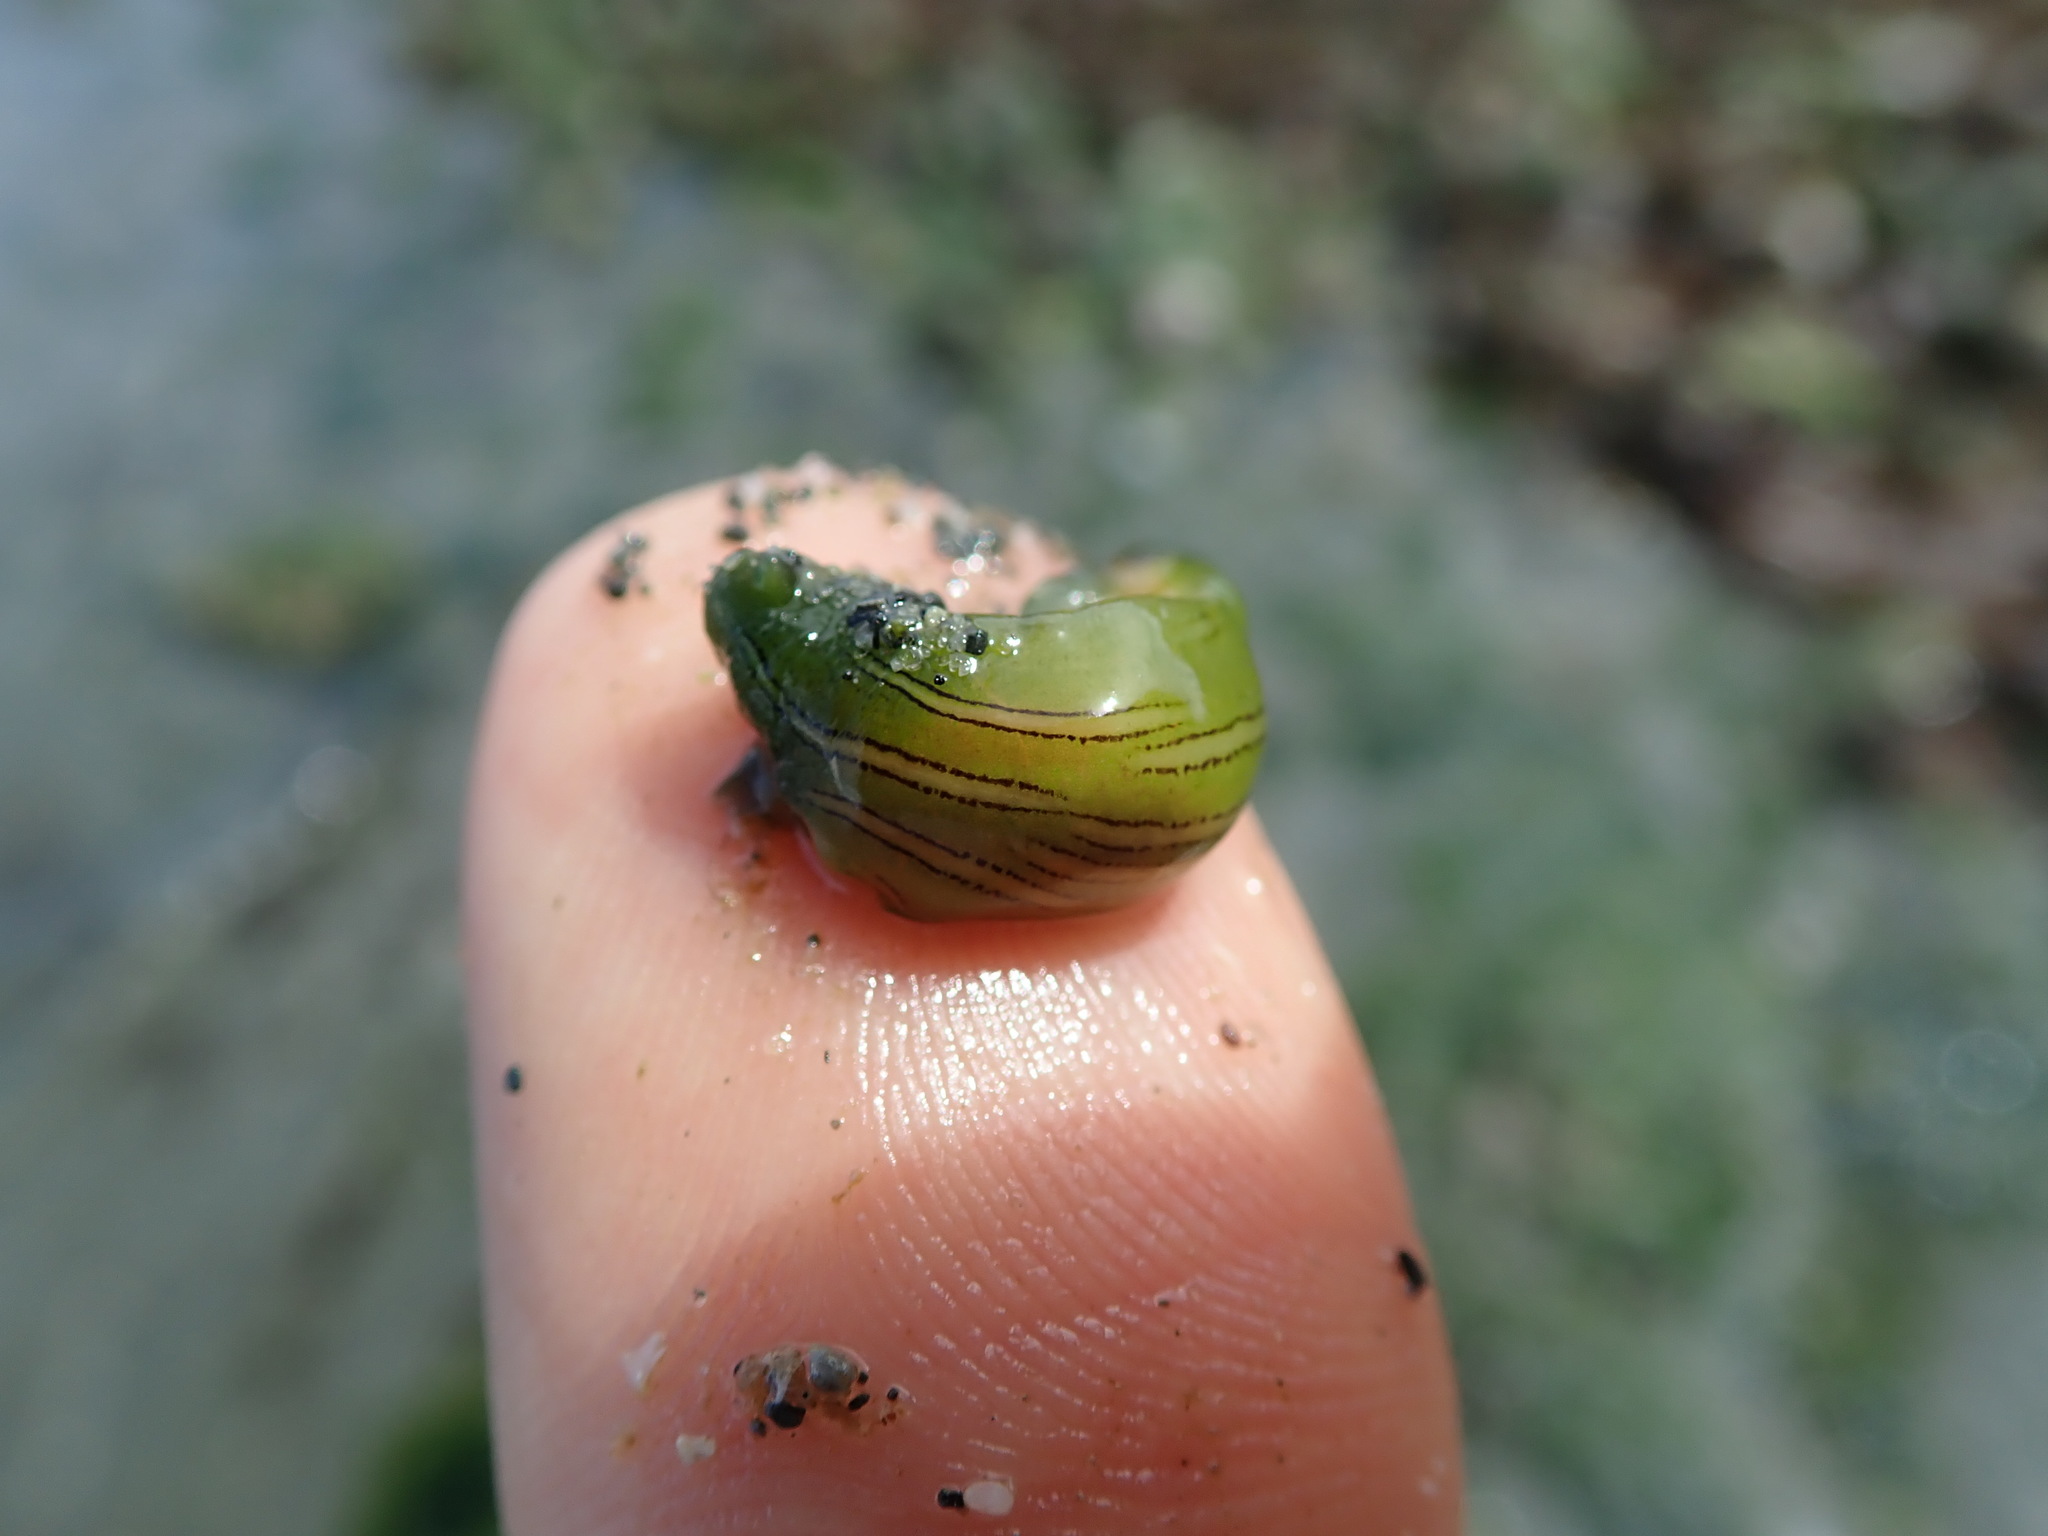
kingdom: Animalia
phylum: Mollusca
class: Gastropoda
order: Aplysiida
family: Aplysiidae
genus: Phyllaplysia
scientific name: Phyllaplysia taylori
